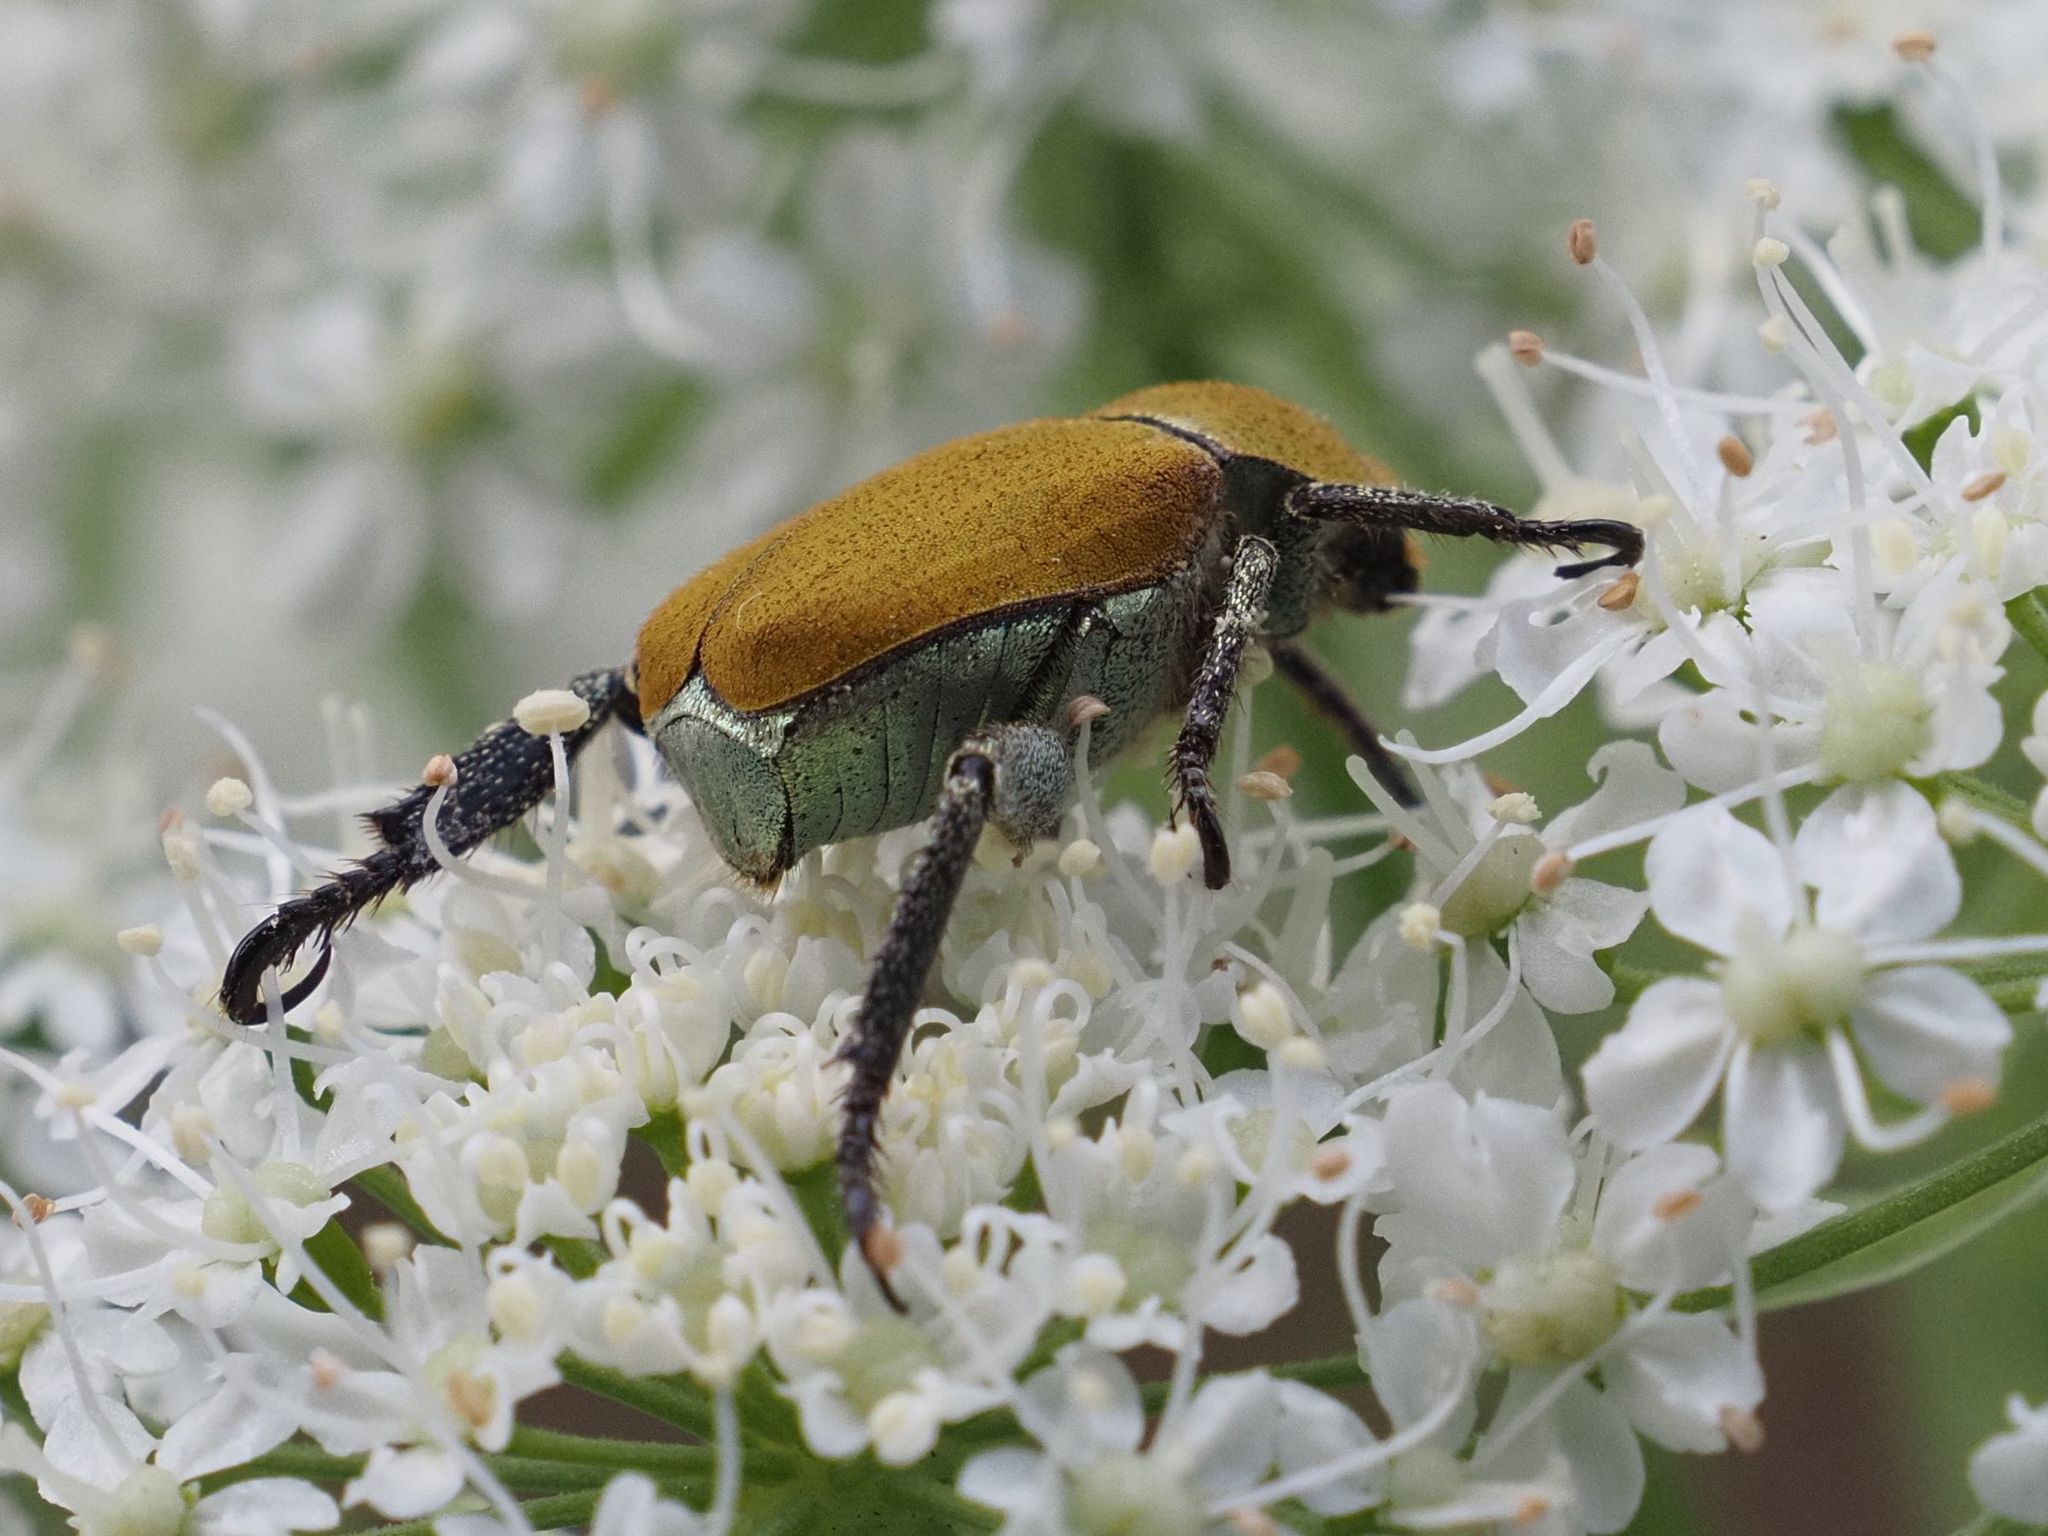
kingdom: Animalia
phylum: Arthropoda
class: Insecta
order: Coleoptera
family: Scarabaeidae
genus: Hoplia
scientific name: Hoplia argentea
